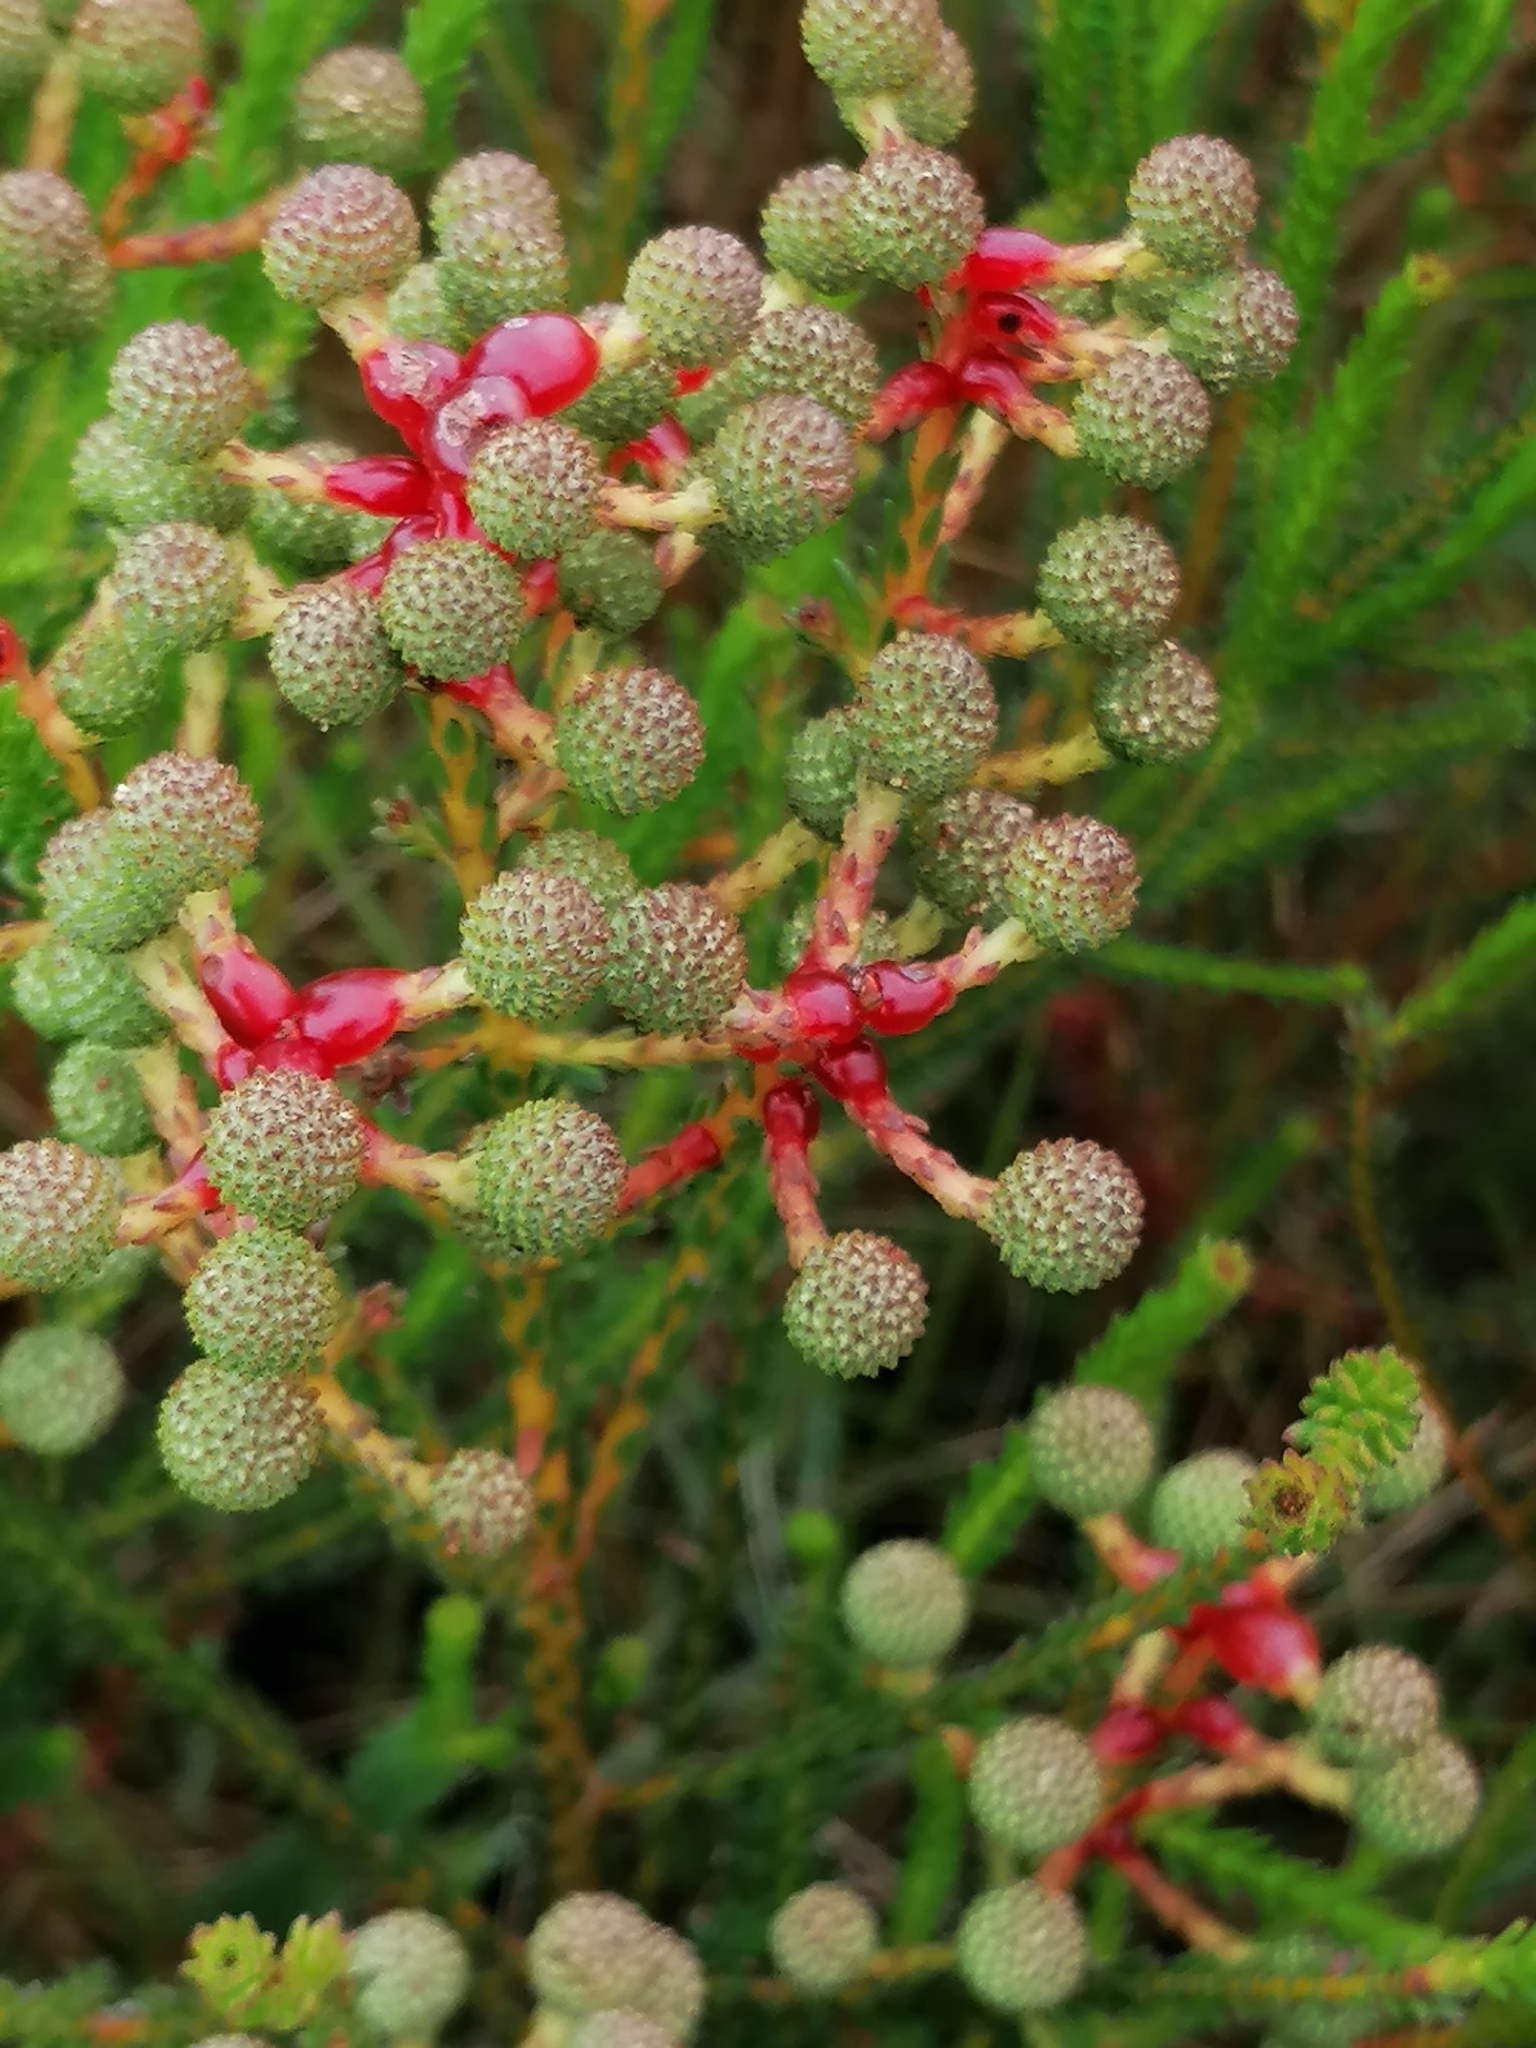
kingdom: Plantae
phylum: Tracheophyta
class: Magnoliopsida
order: Bruniales
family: Bruniaceae
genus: Berzelia
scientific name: Berzelia abrotanoides
